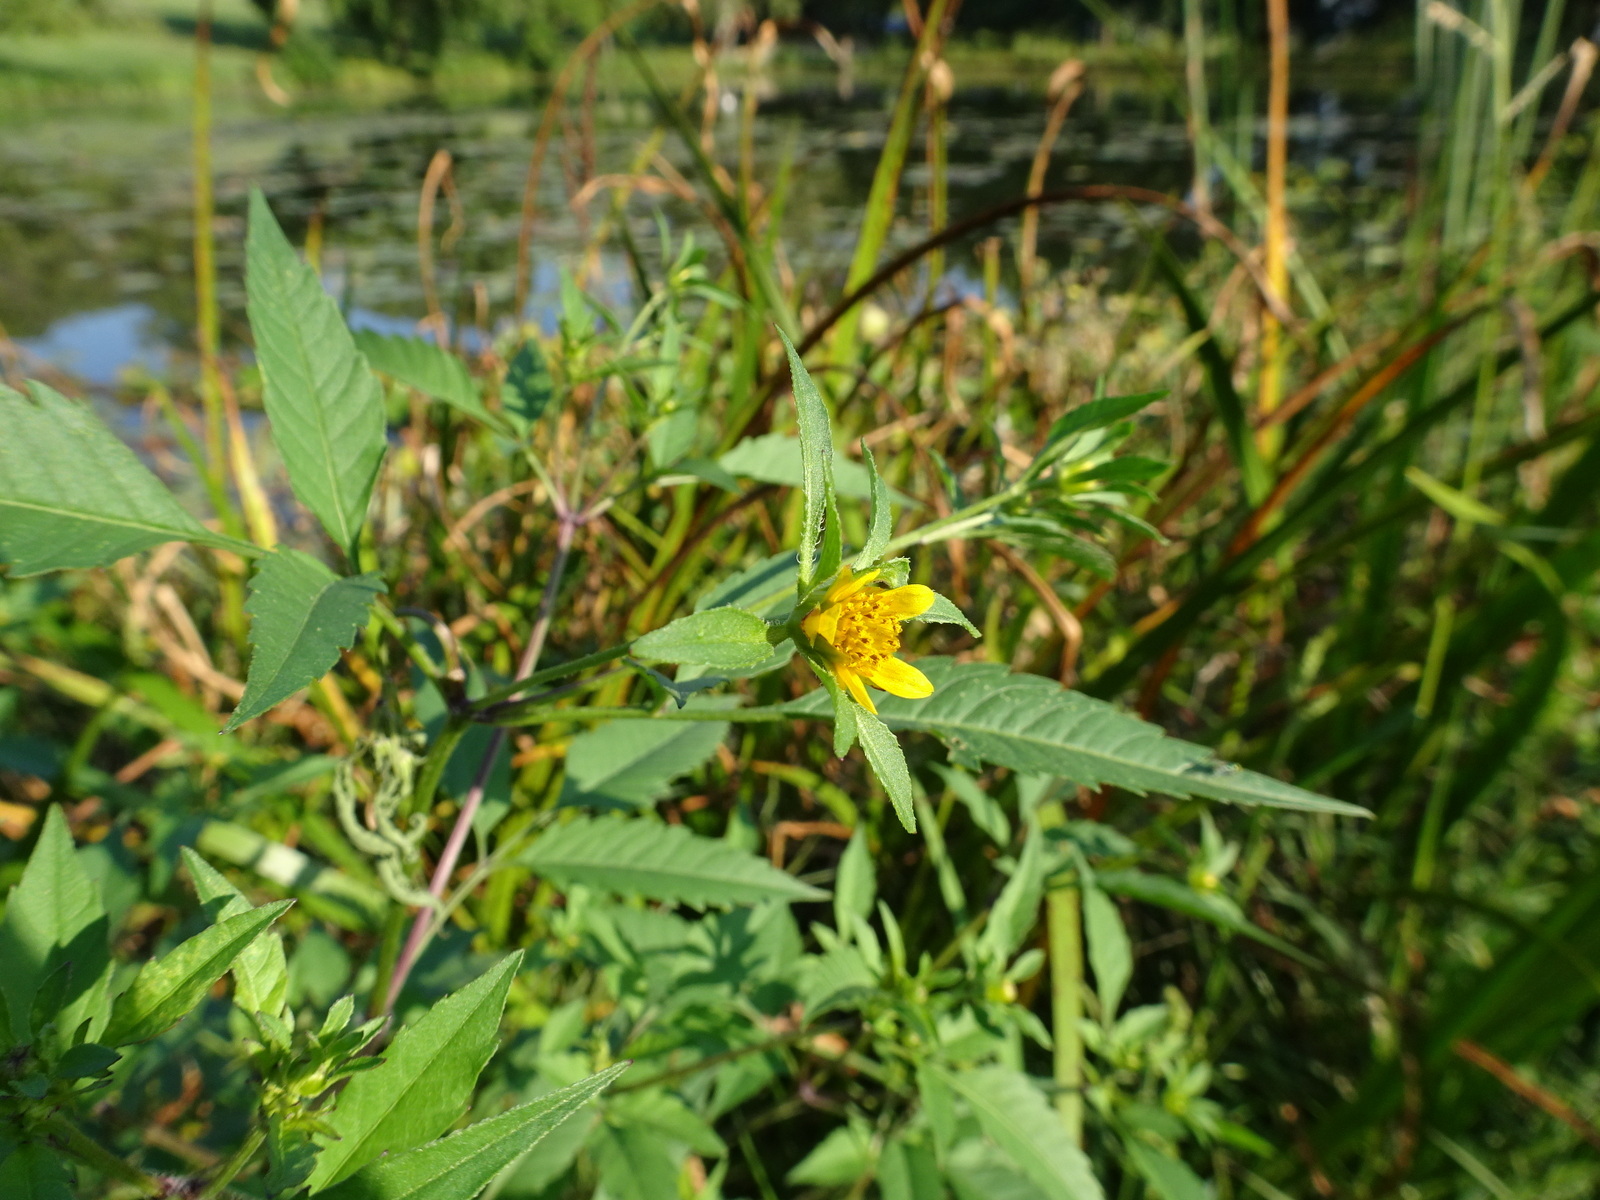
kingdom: Plantae
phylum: Tracheophyta
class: Magnoliopsida
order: Asterales
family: Asteraceae
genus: Bidens
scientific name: Bidens frondosa
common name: Beggarticks
